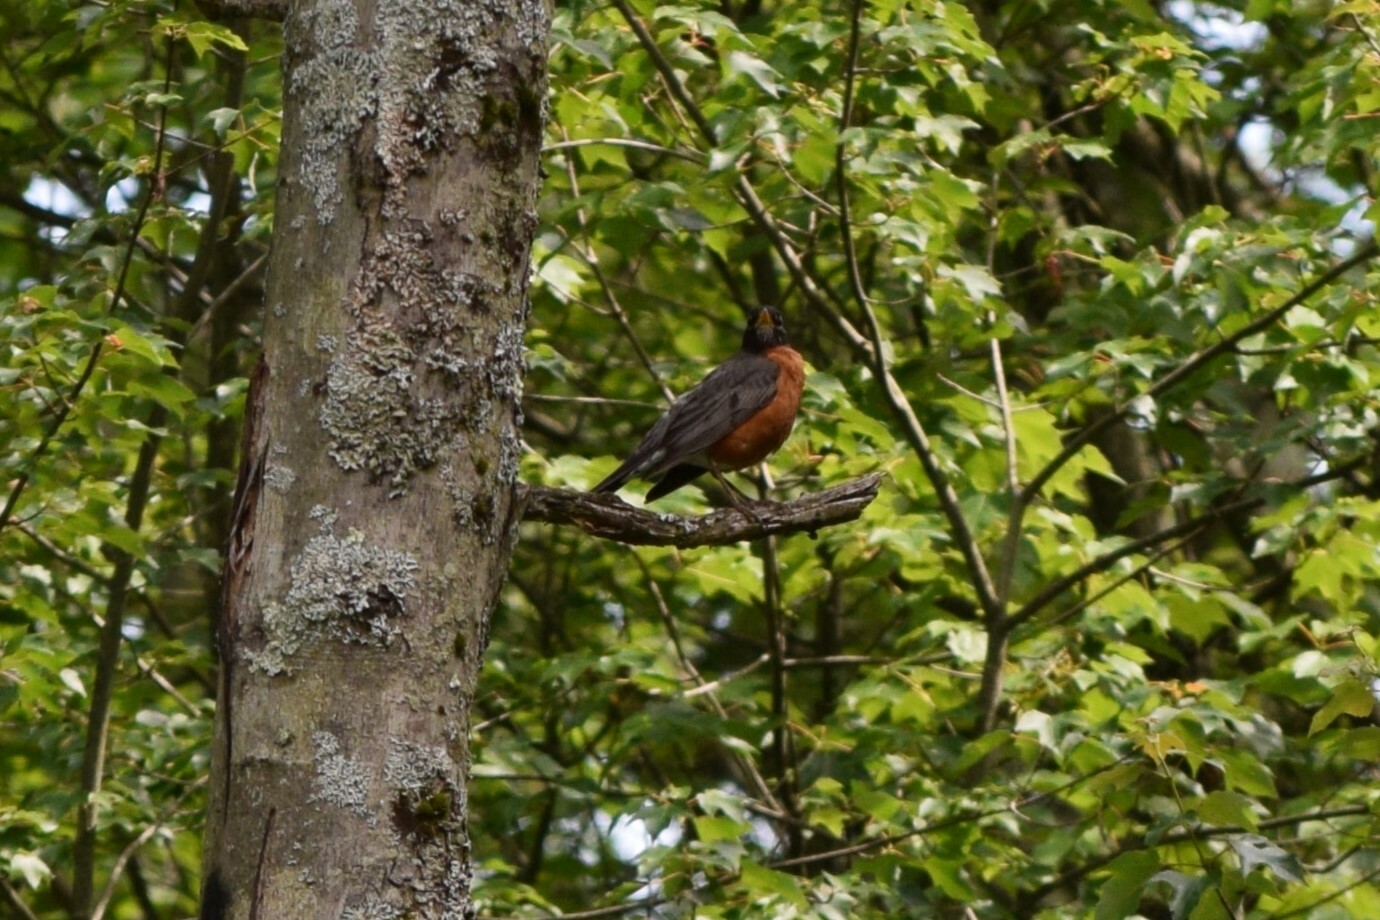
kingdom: Animalia
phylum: Chordata
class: Aves
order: Passeriformes
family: Turdidae
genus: Turdus
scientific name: Turdus migratorius
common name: American robin
